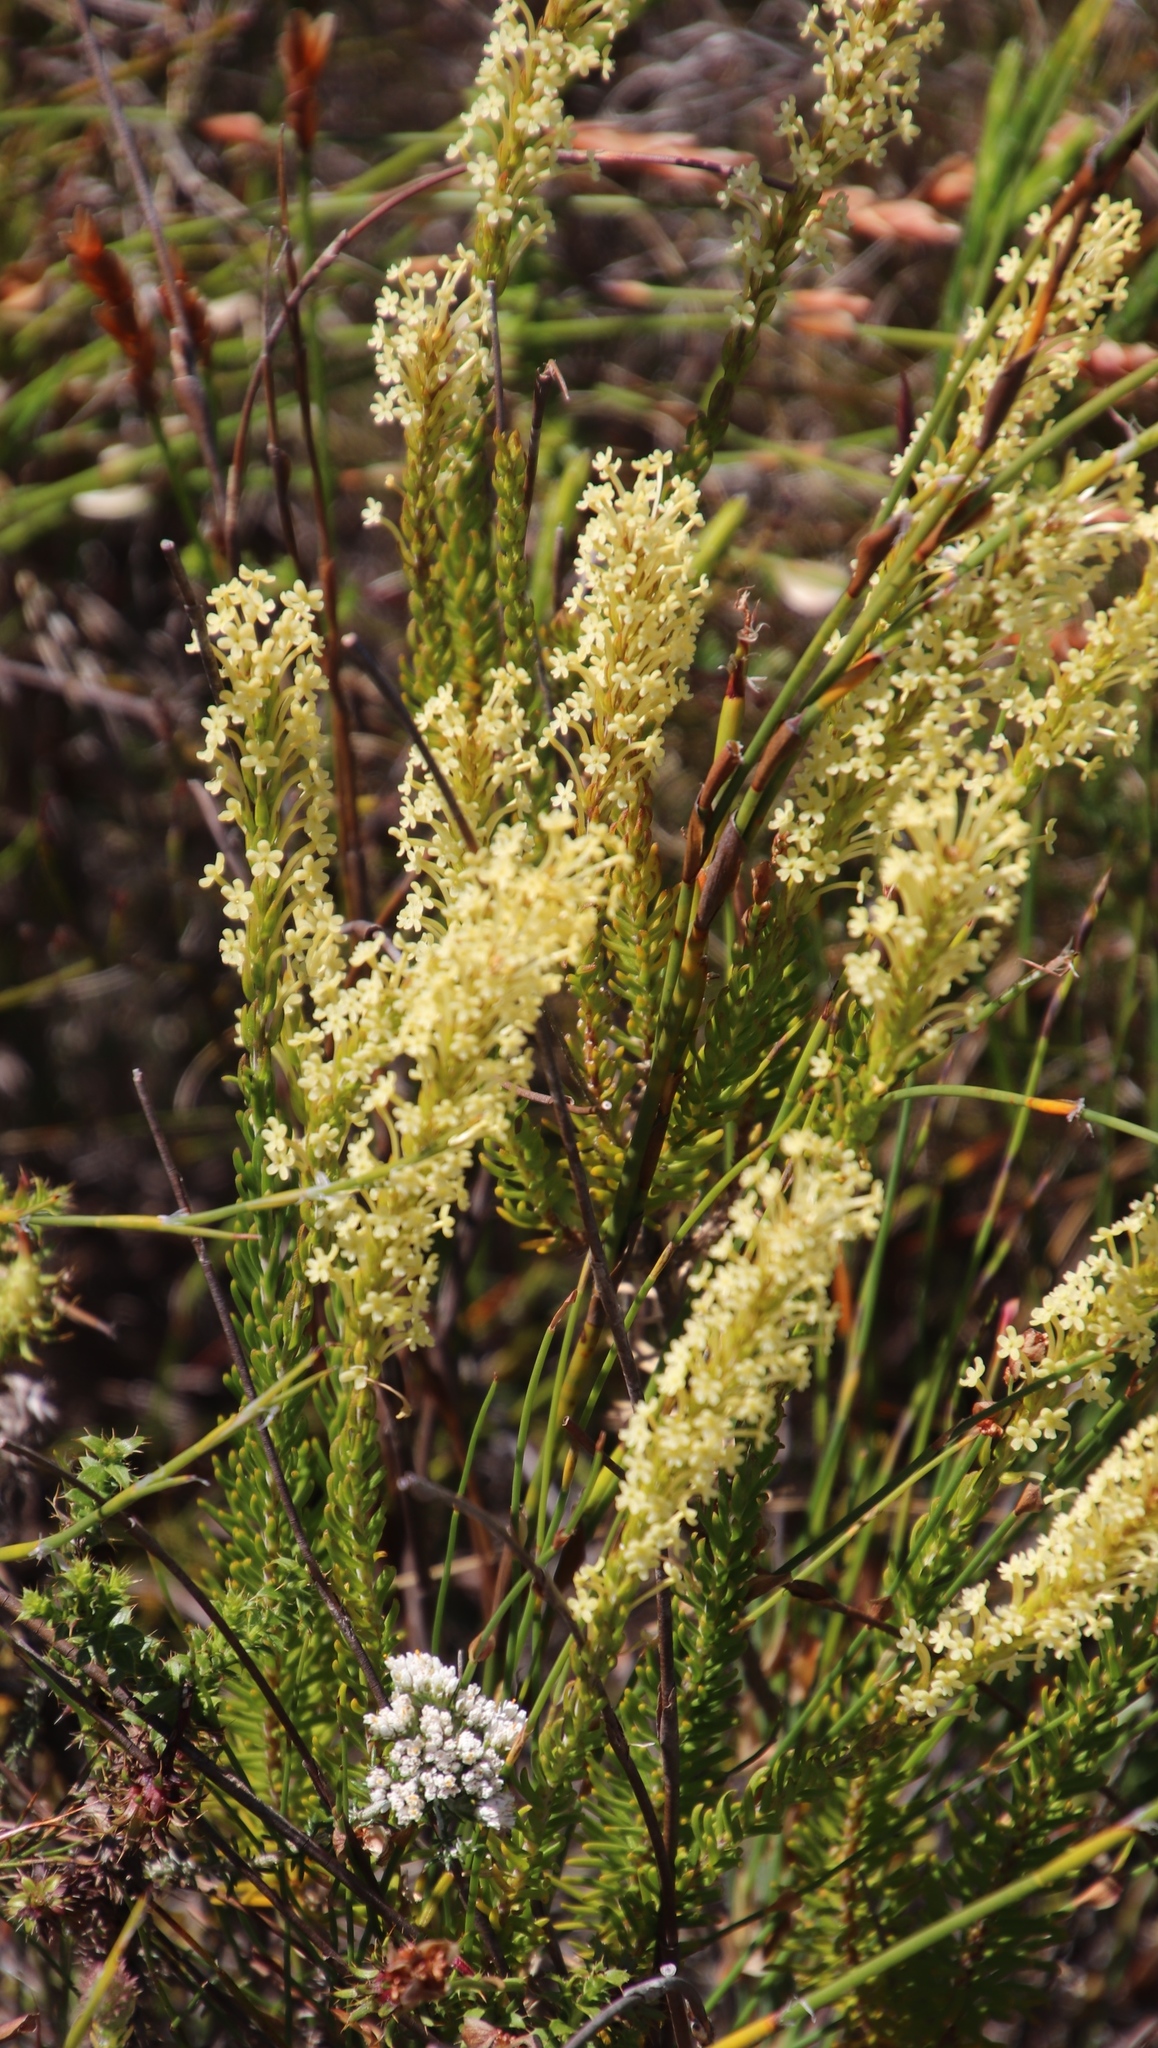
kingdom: Plantae
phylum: Tracheophyta
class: Magnoliopsida
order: Lamiales
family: Scrophulariaceae
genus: Microdon
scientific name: Microdon dubius
